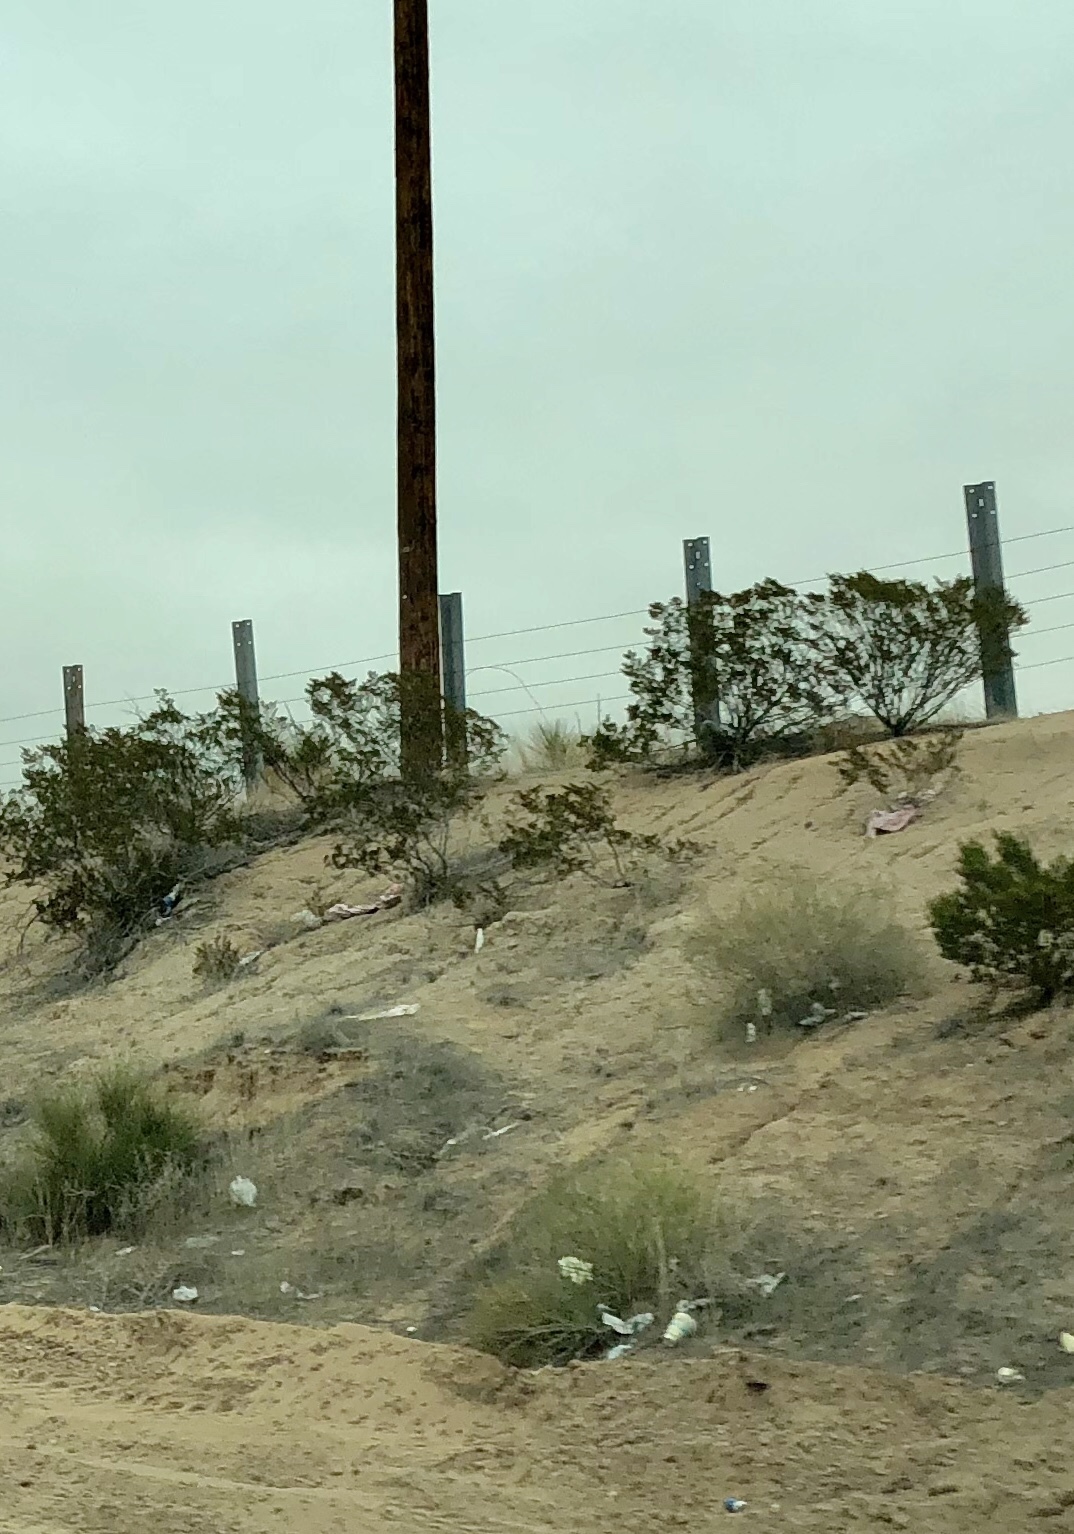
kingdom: Plantae
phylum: Tracheophyta
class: Magnoliopsida
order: Zygophyllales
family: Zygophyllaceae
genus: Larrea
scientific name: Larrea tridentata
